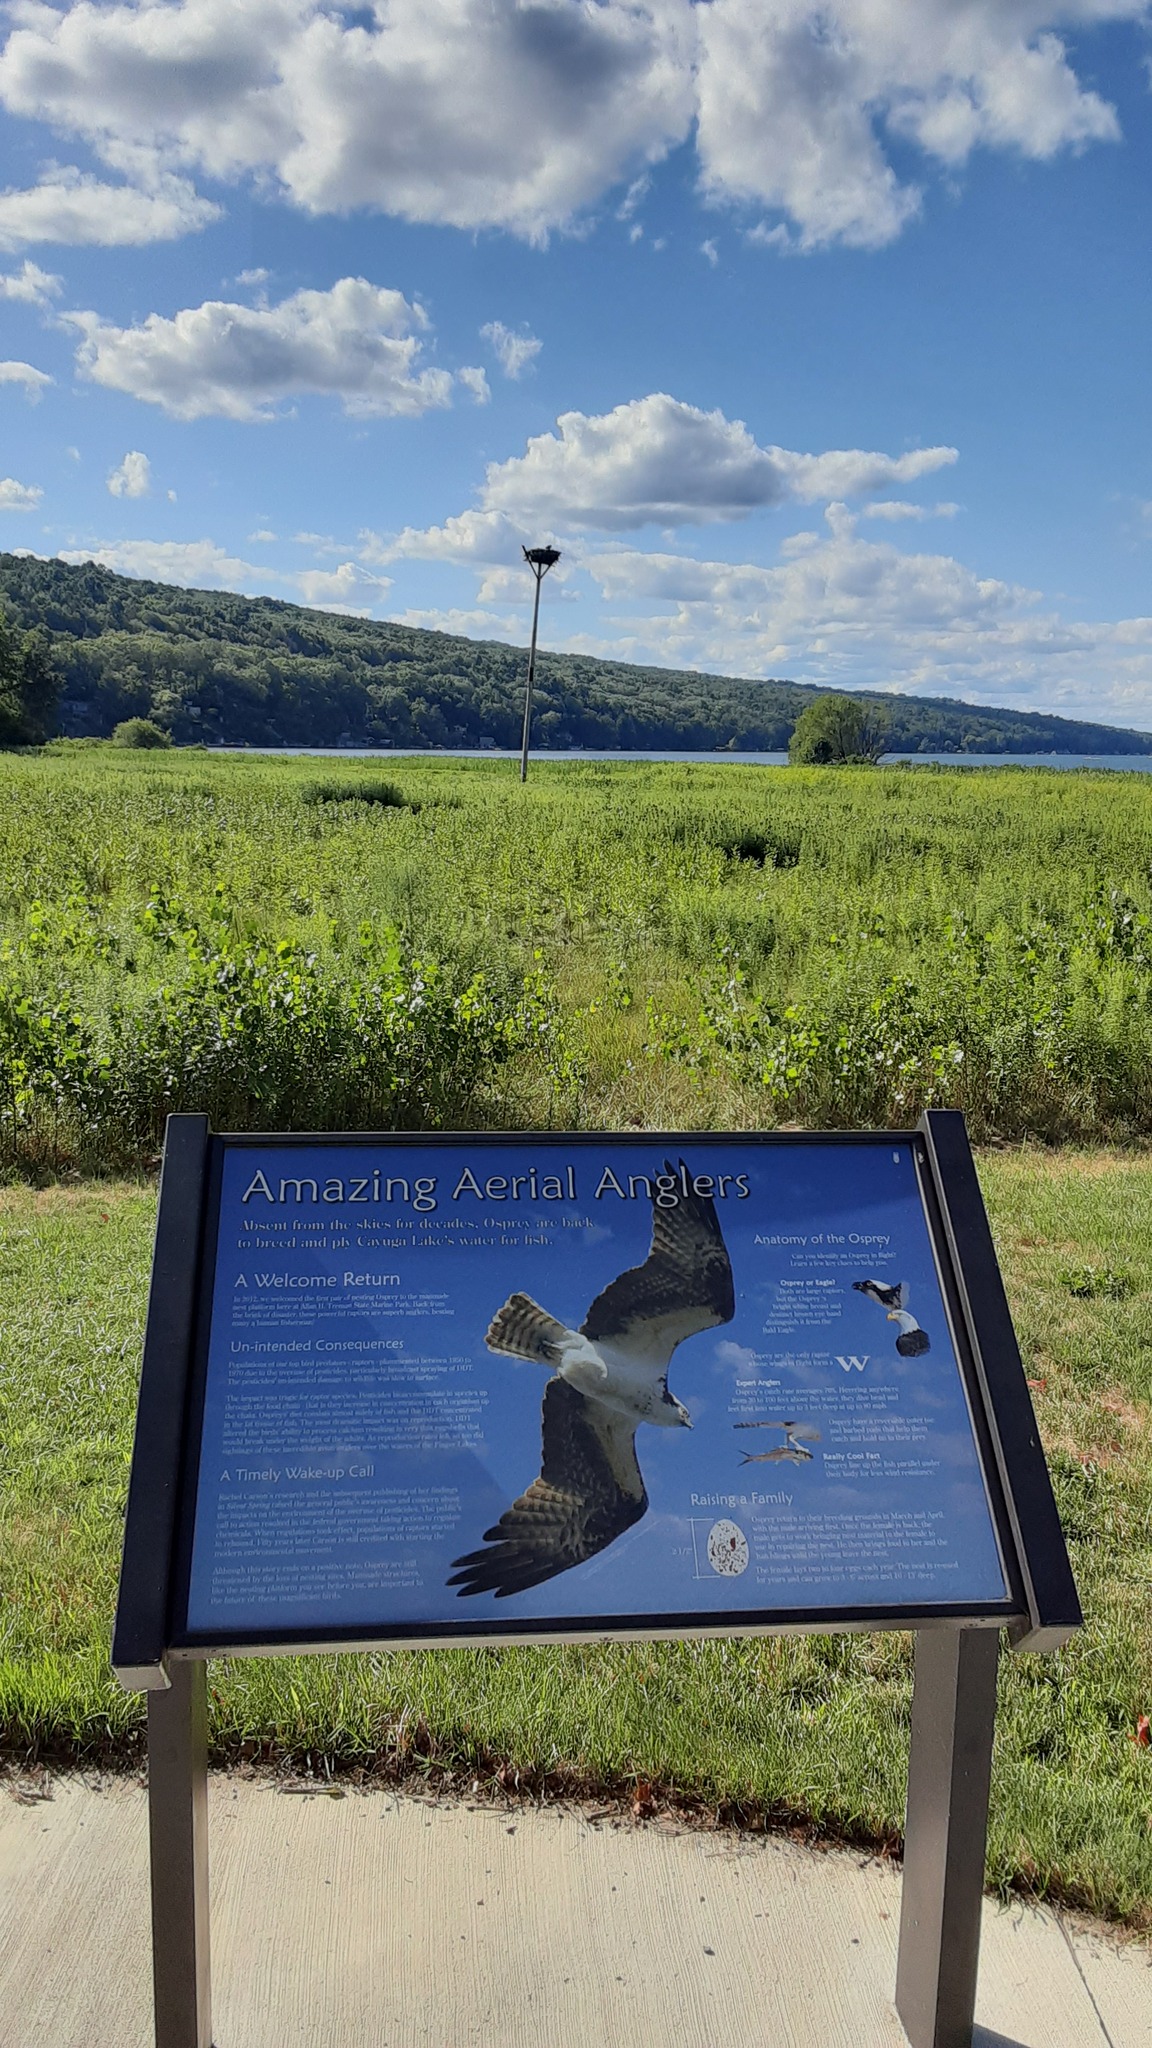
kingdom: Animalia
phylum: Chordata
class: Aves
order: Accipitriformes
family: Pandionidae
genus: Pandion
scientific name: Pandion haliaetus
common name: Osprey
